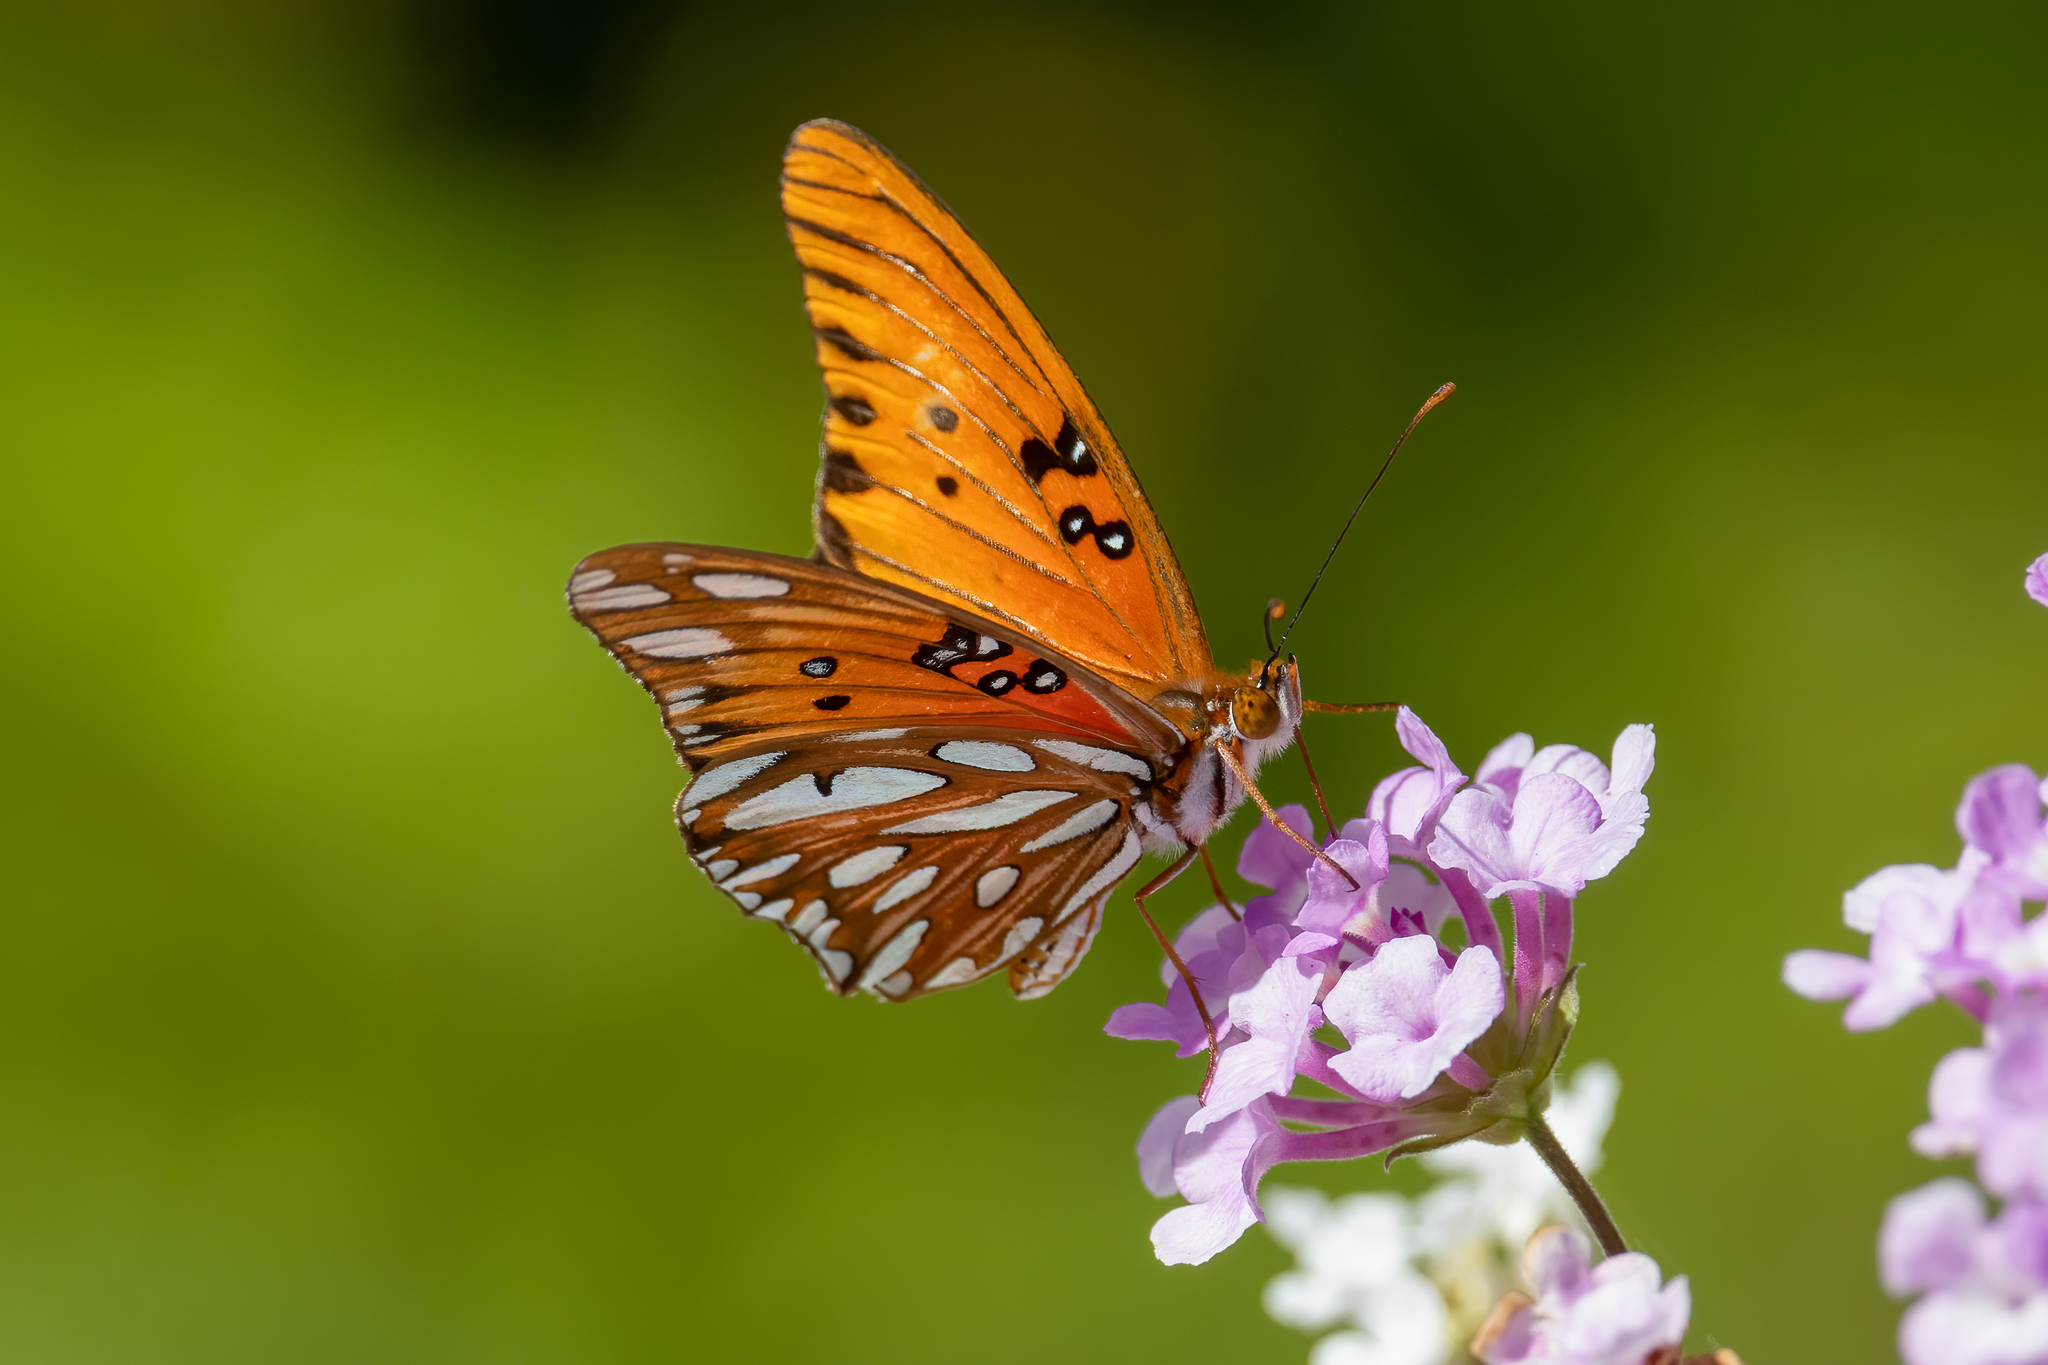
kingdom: Animalia
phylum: Arthropoda
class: Insecta
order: Lepidoptera
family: Nymphalidae
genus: Dione
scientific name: Dione vanillae
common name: Gulf fritillary
